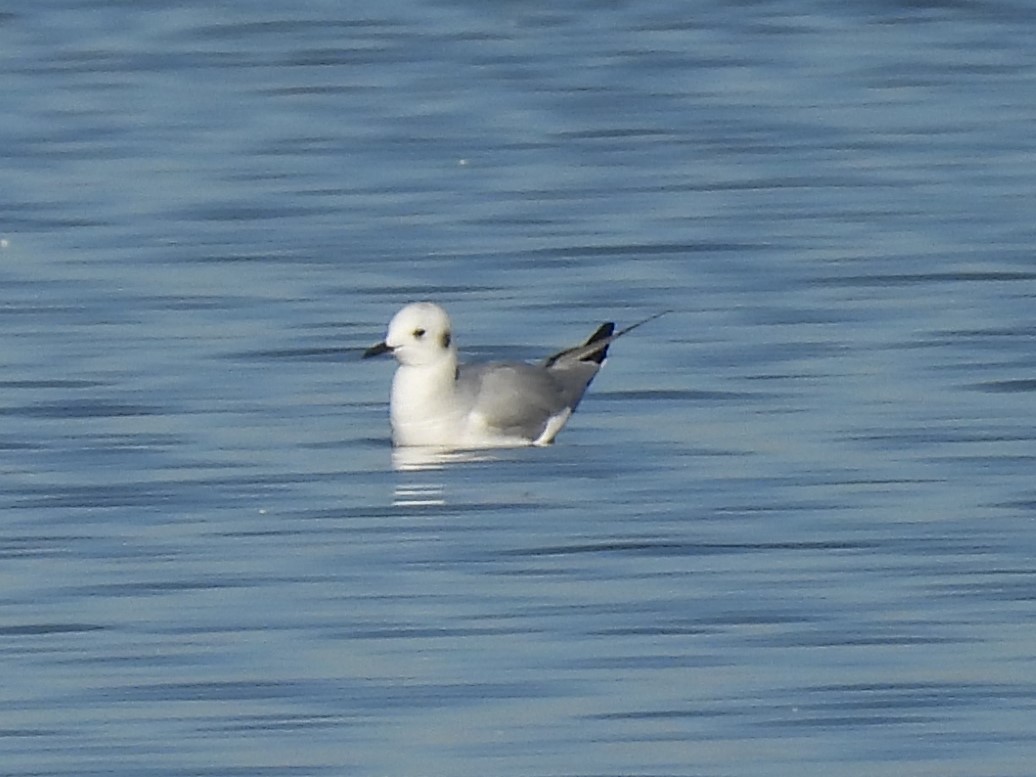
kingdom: Animalia
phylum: Chordata
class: Aves
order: Charadriiformes
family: Laridae
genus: Chroicocephalus
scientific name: Chroicocephalus philadelphia
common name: Bonaparte's gull
